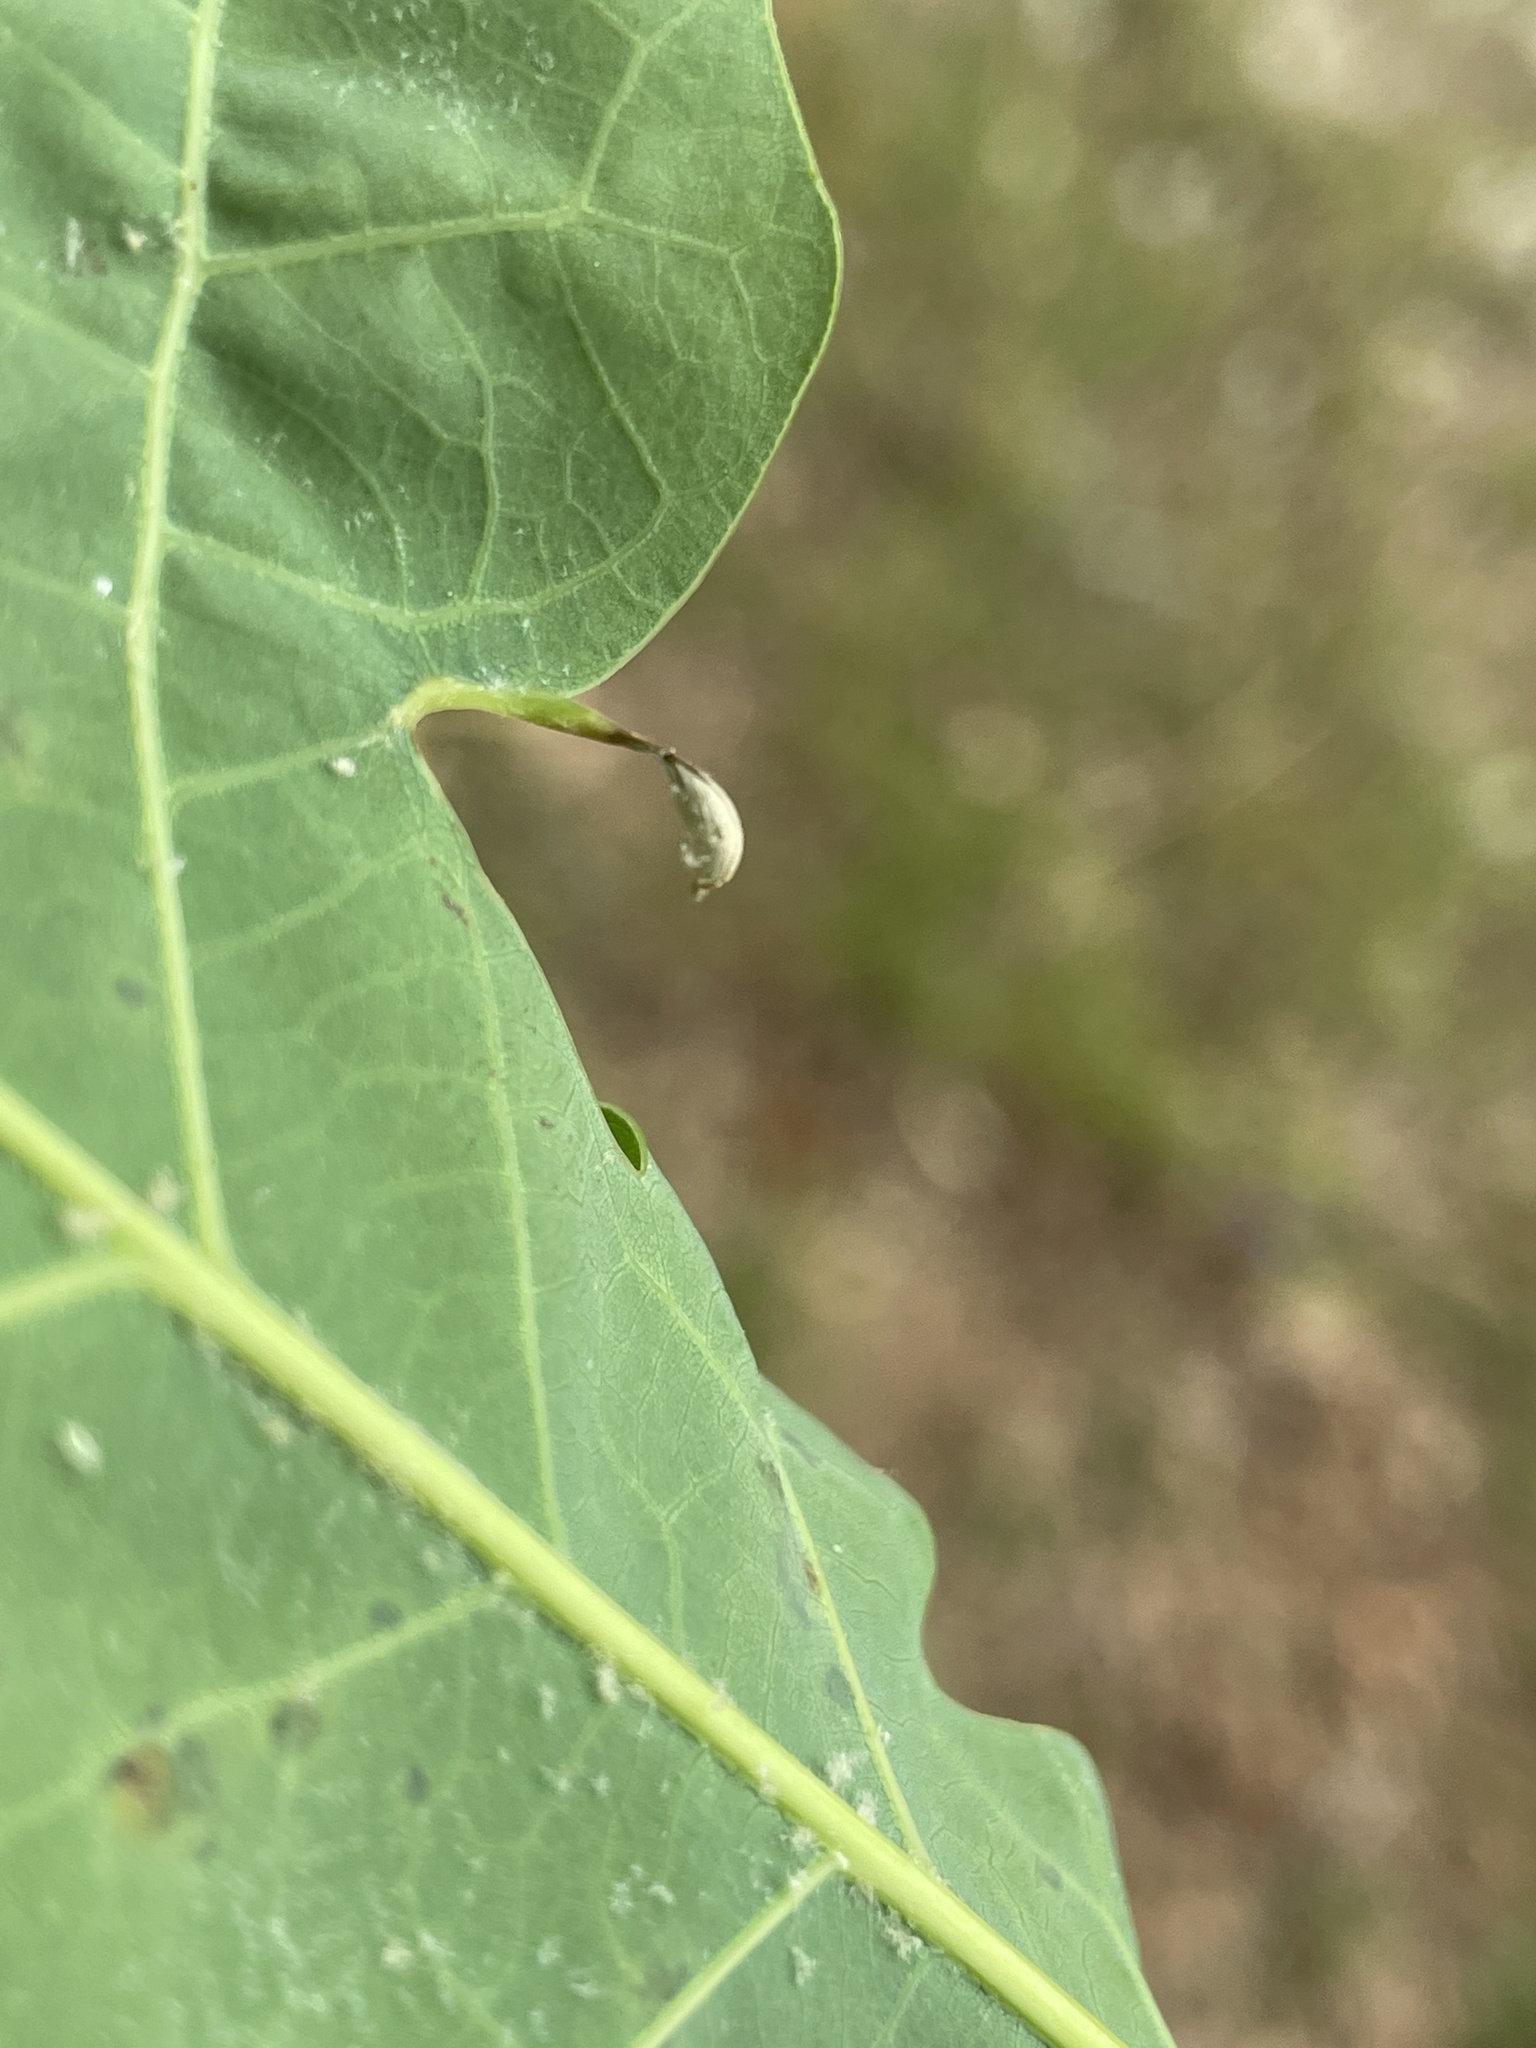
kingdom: Animalia
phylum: Arthropoda
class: Insecta
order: Hymenoptera
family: Cynipidae
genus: Andricus
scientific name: Andricus
